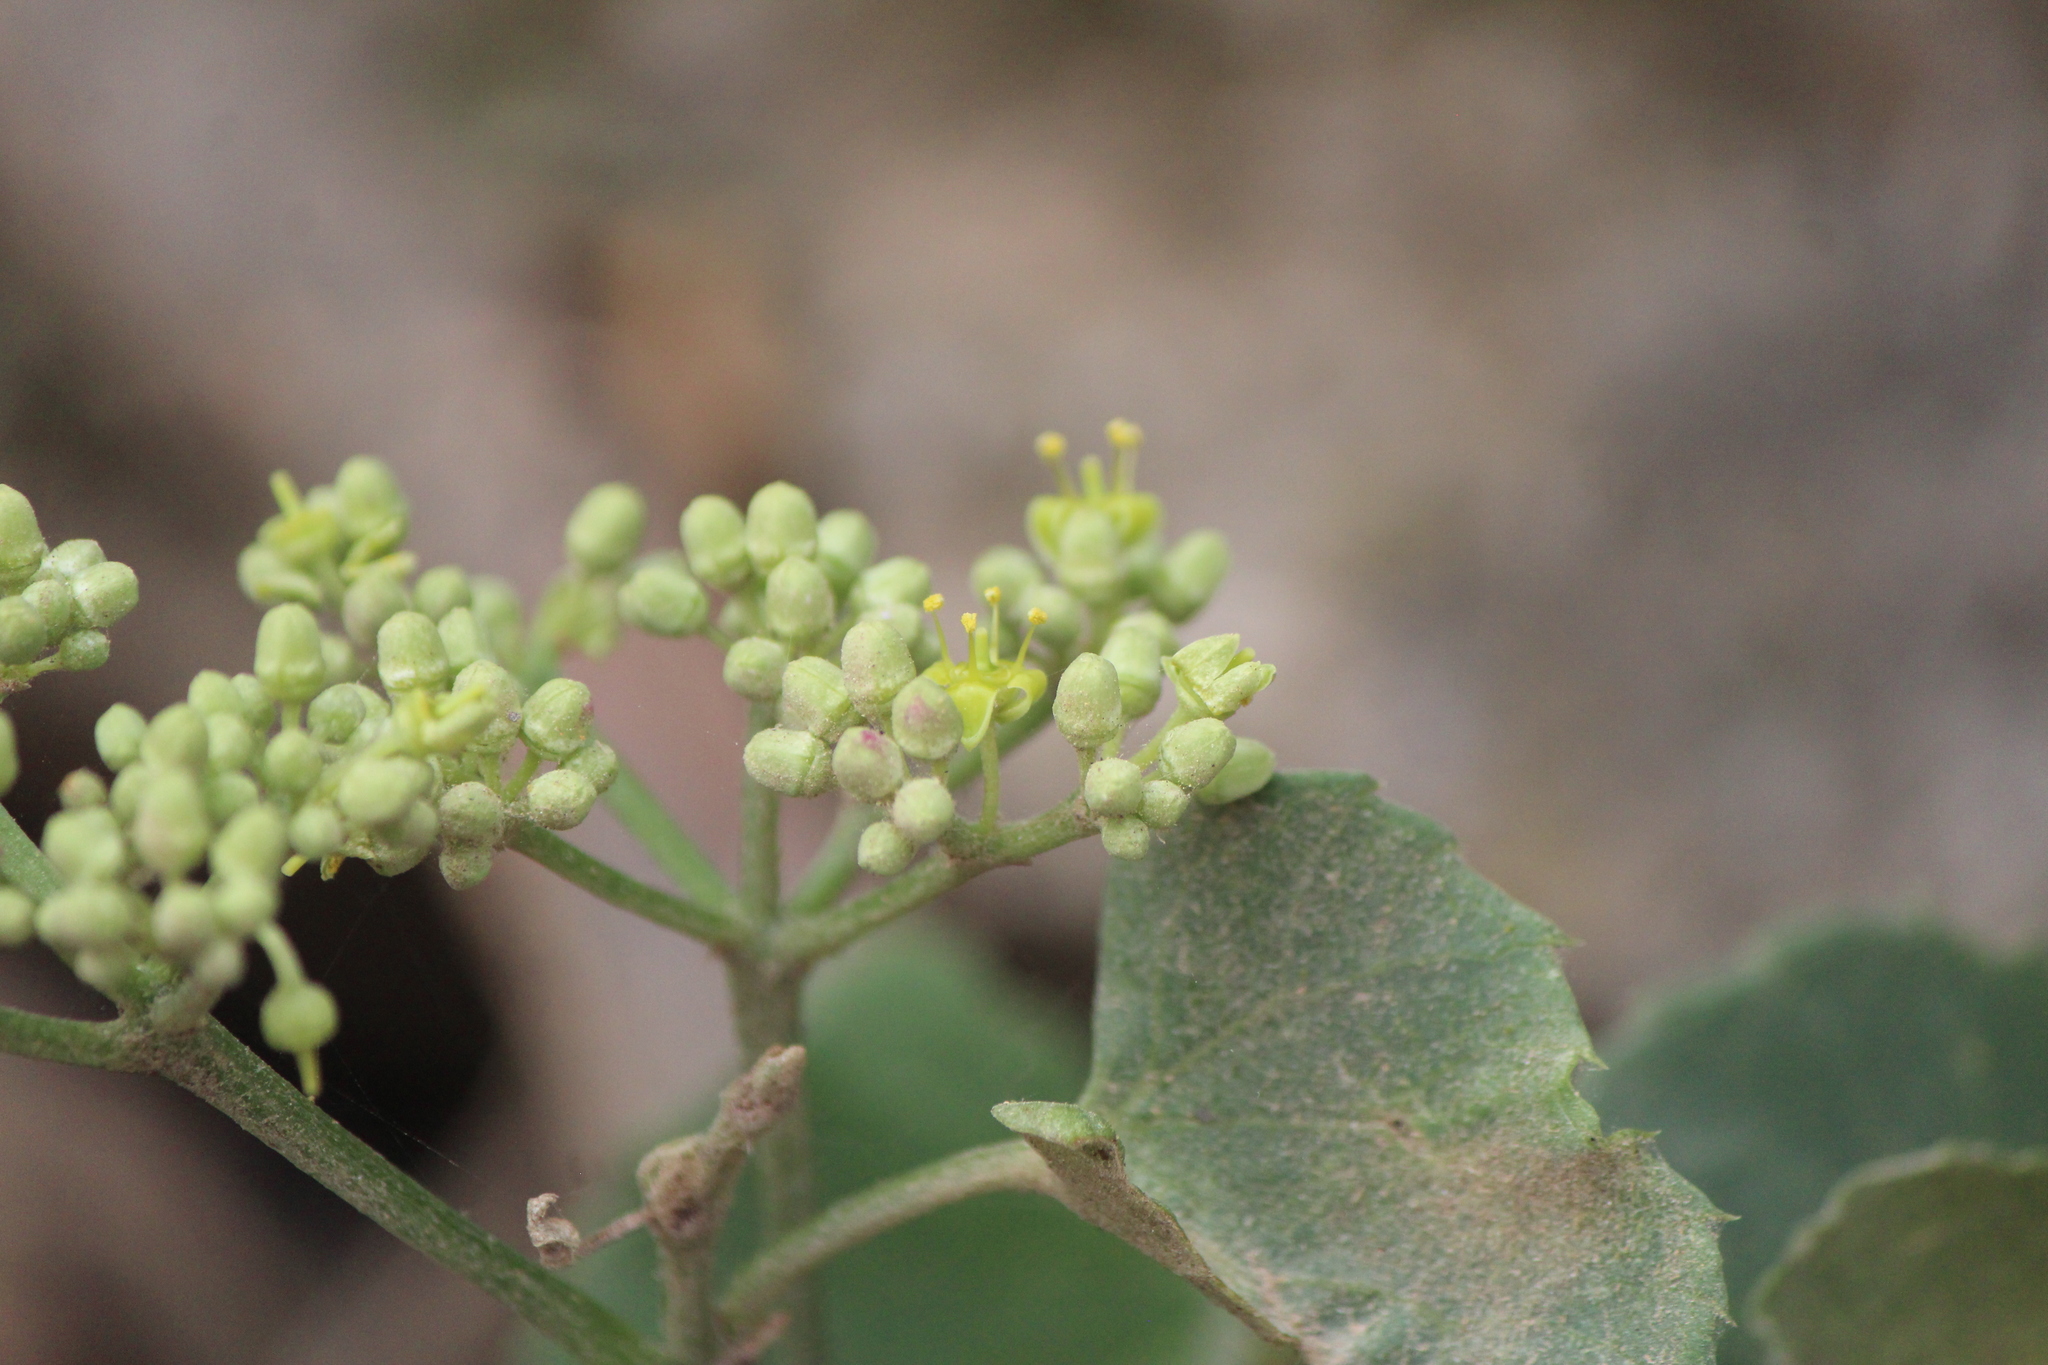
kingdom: Plantae
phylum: Tracheophyta
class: Magnoliopsida
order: Vitales
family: Vitaceae
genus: Cissus
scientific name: Cissus tiliacea
